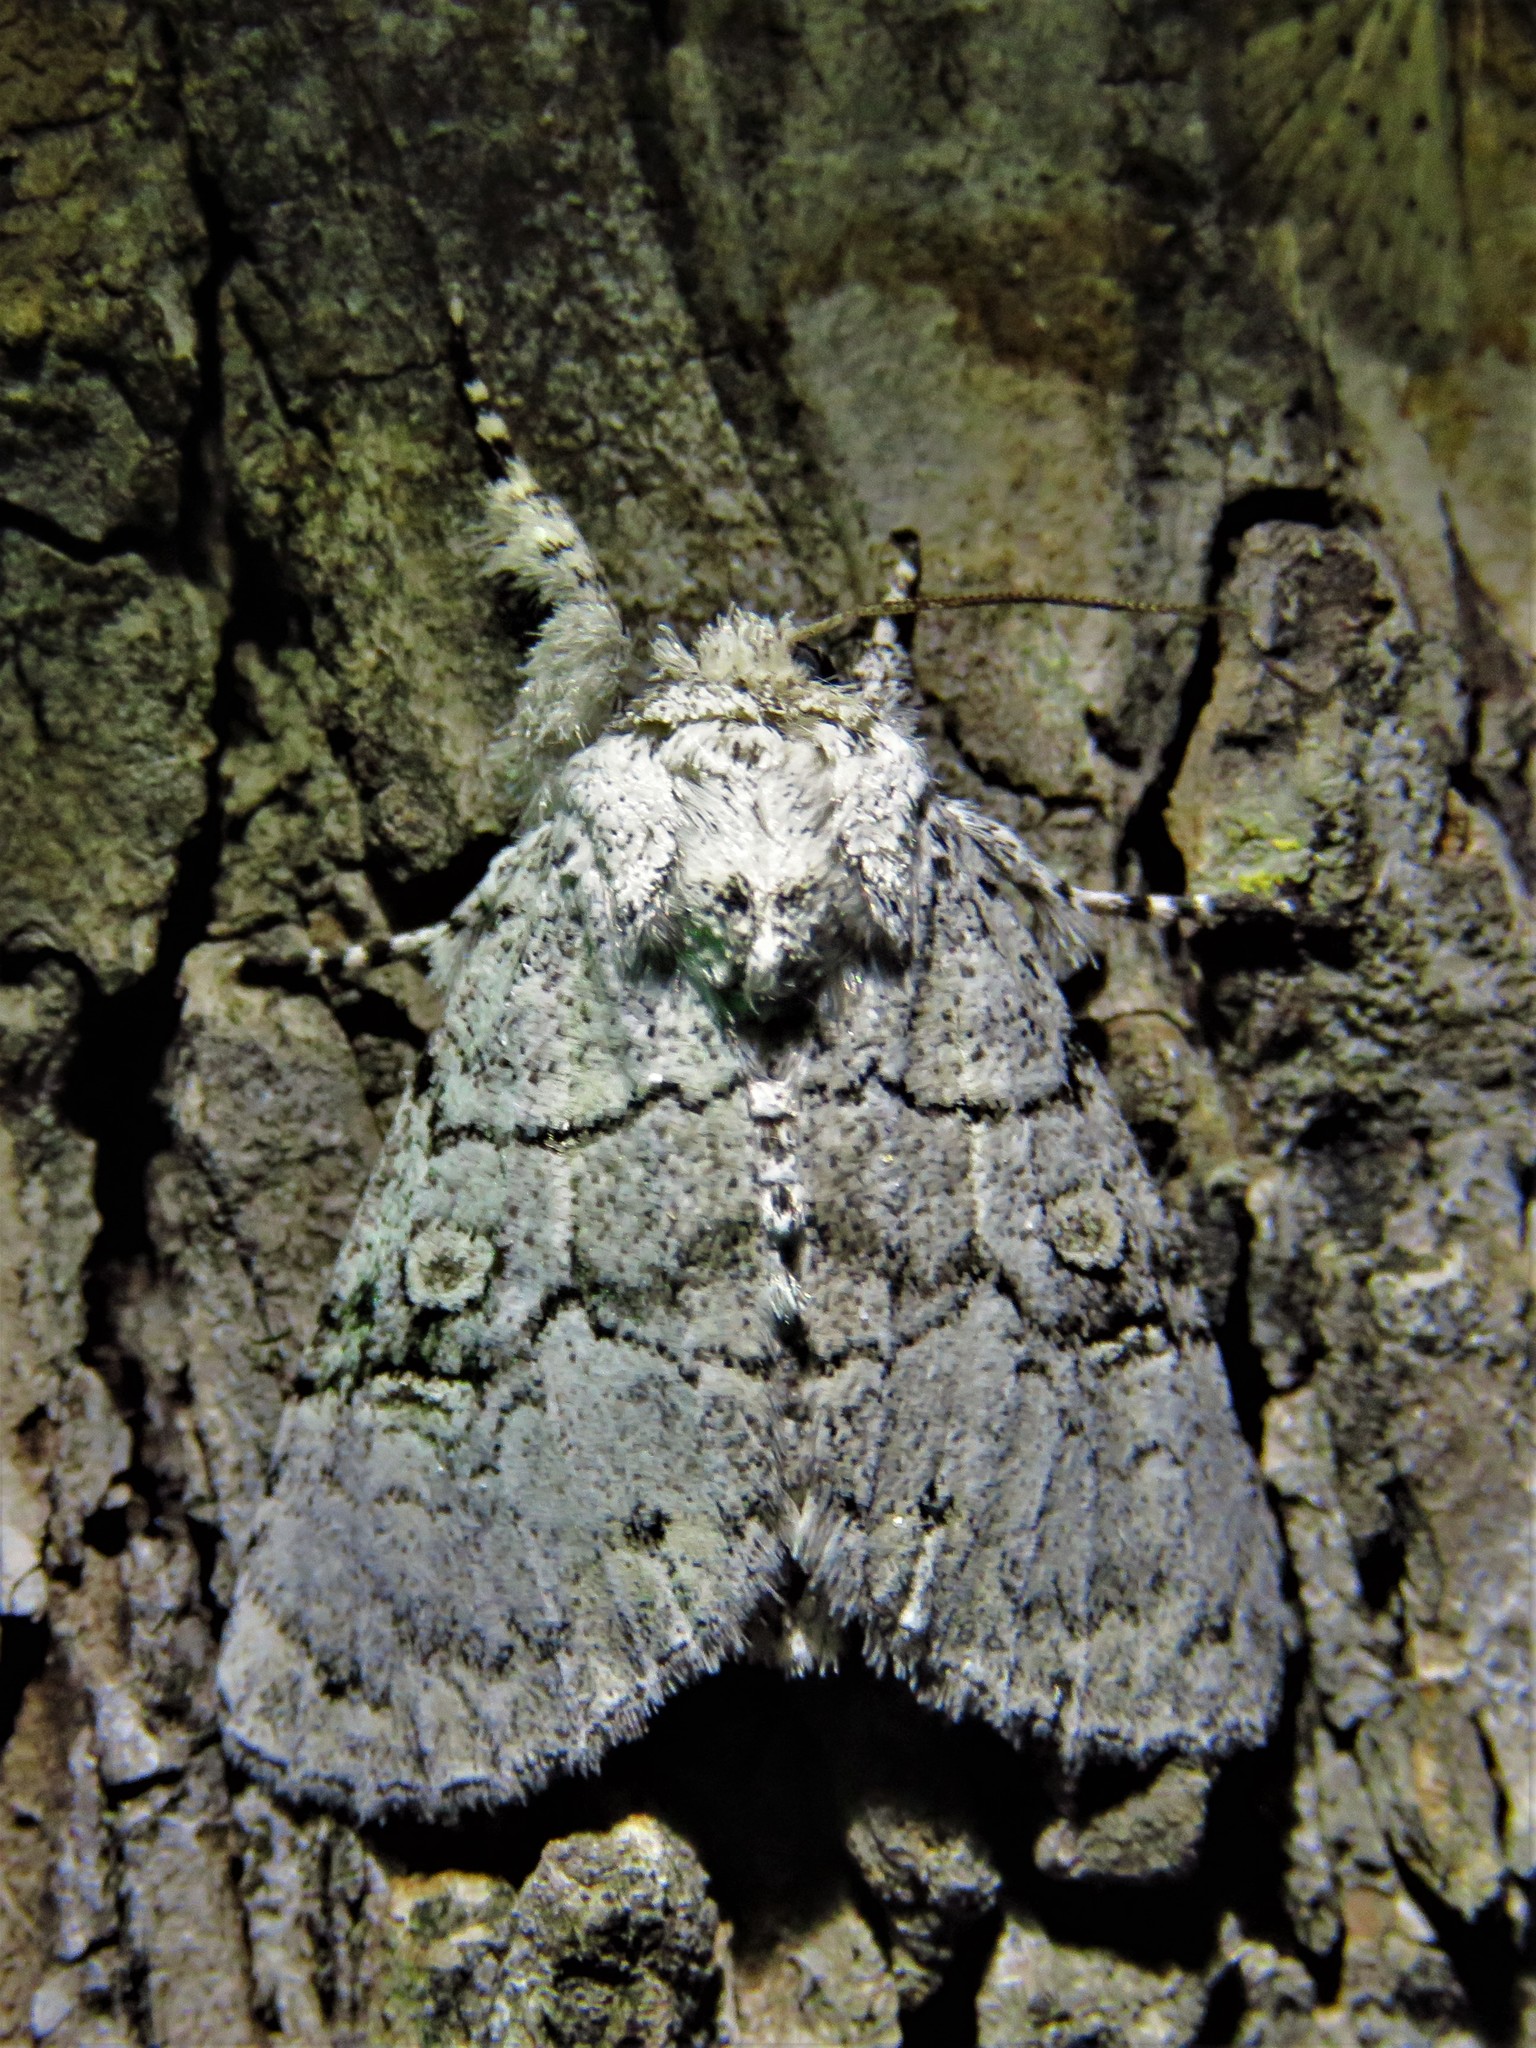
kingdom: Animalia
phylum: Arthropoda
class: Insecta
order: Lepidoptera
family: Noctuidae
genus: Charadra
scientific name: Charadra dispulsa
